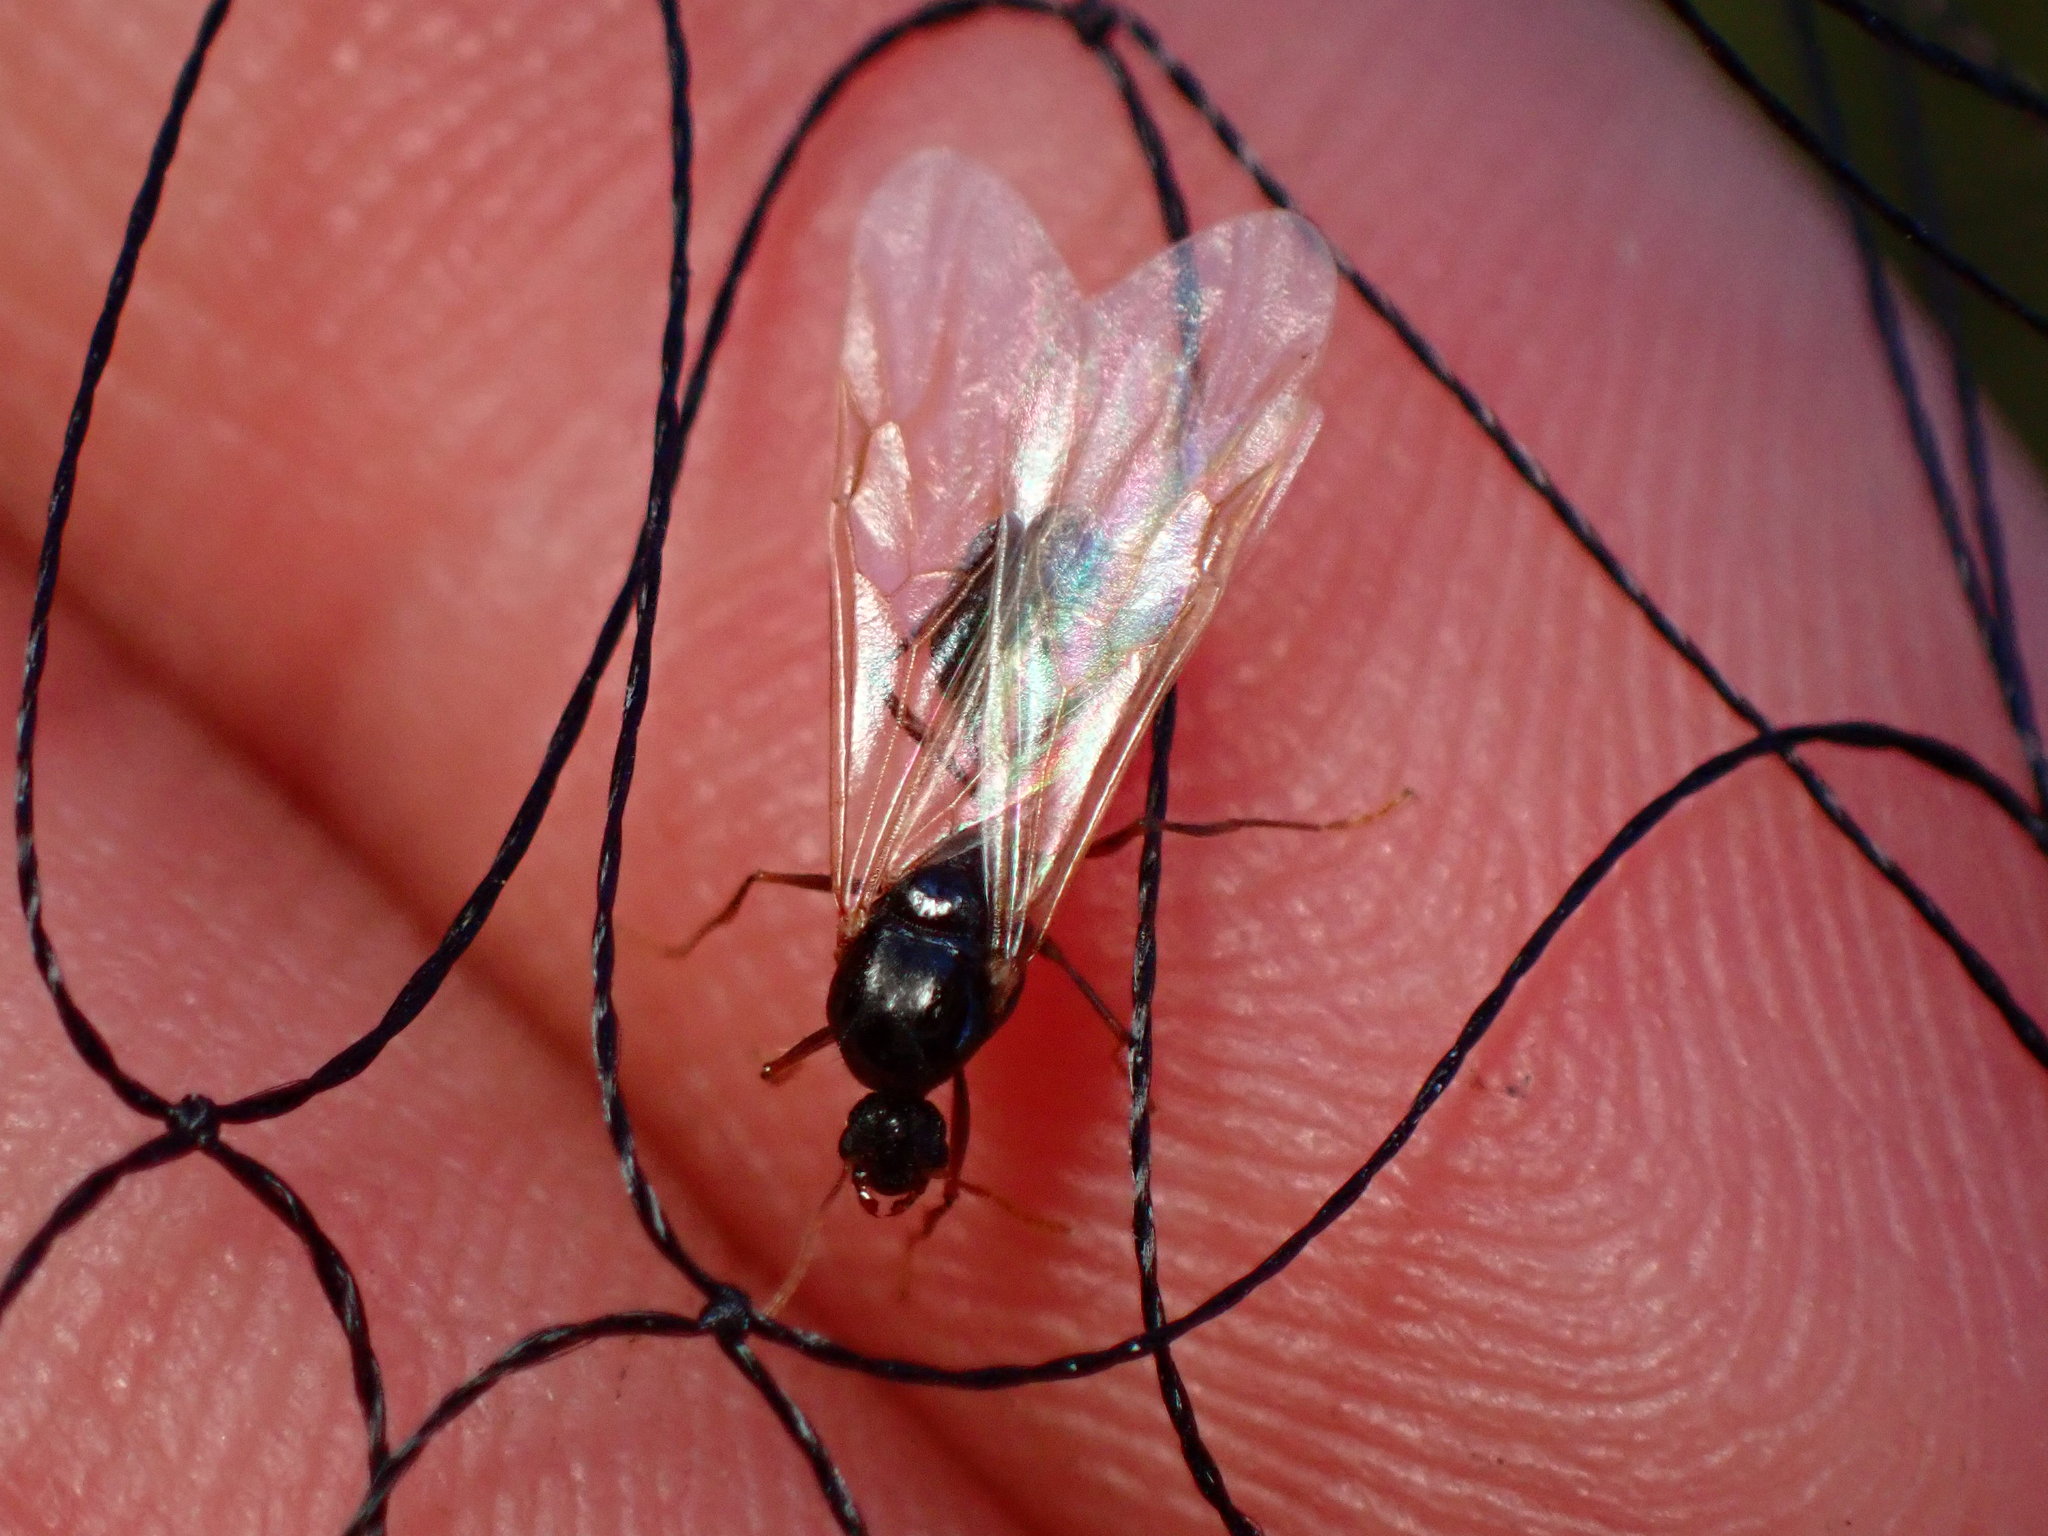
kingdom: Animalia
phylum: Arthropoda
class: Insecta
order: Hymenoptera
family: Formicidae
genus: Tetramorium
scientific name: Tetramorium immigrans
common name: Pavement ant
